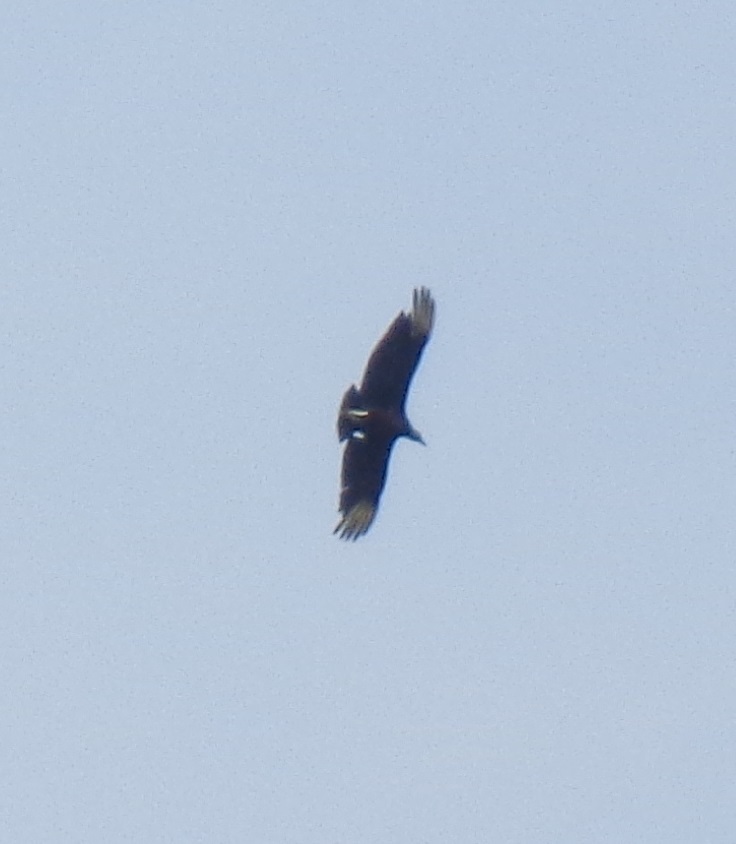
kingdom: Animalia
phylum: Chordata
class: Aves
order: Accipitriformes
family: Cathartidae
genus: Coragyps
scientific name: Coragyps atratus
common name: Black vulture
